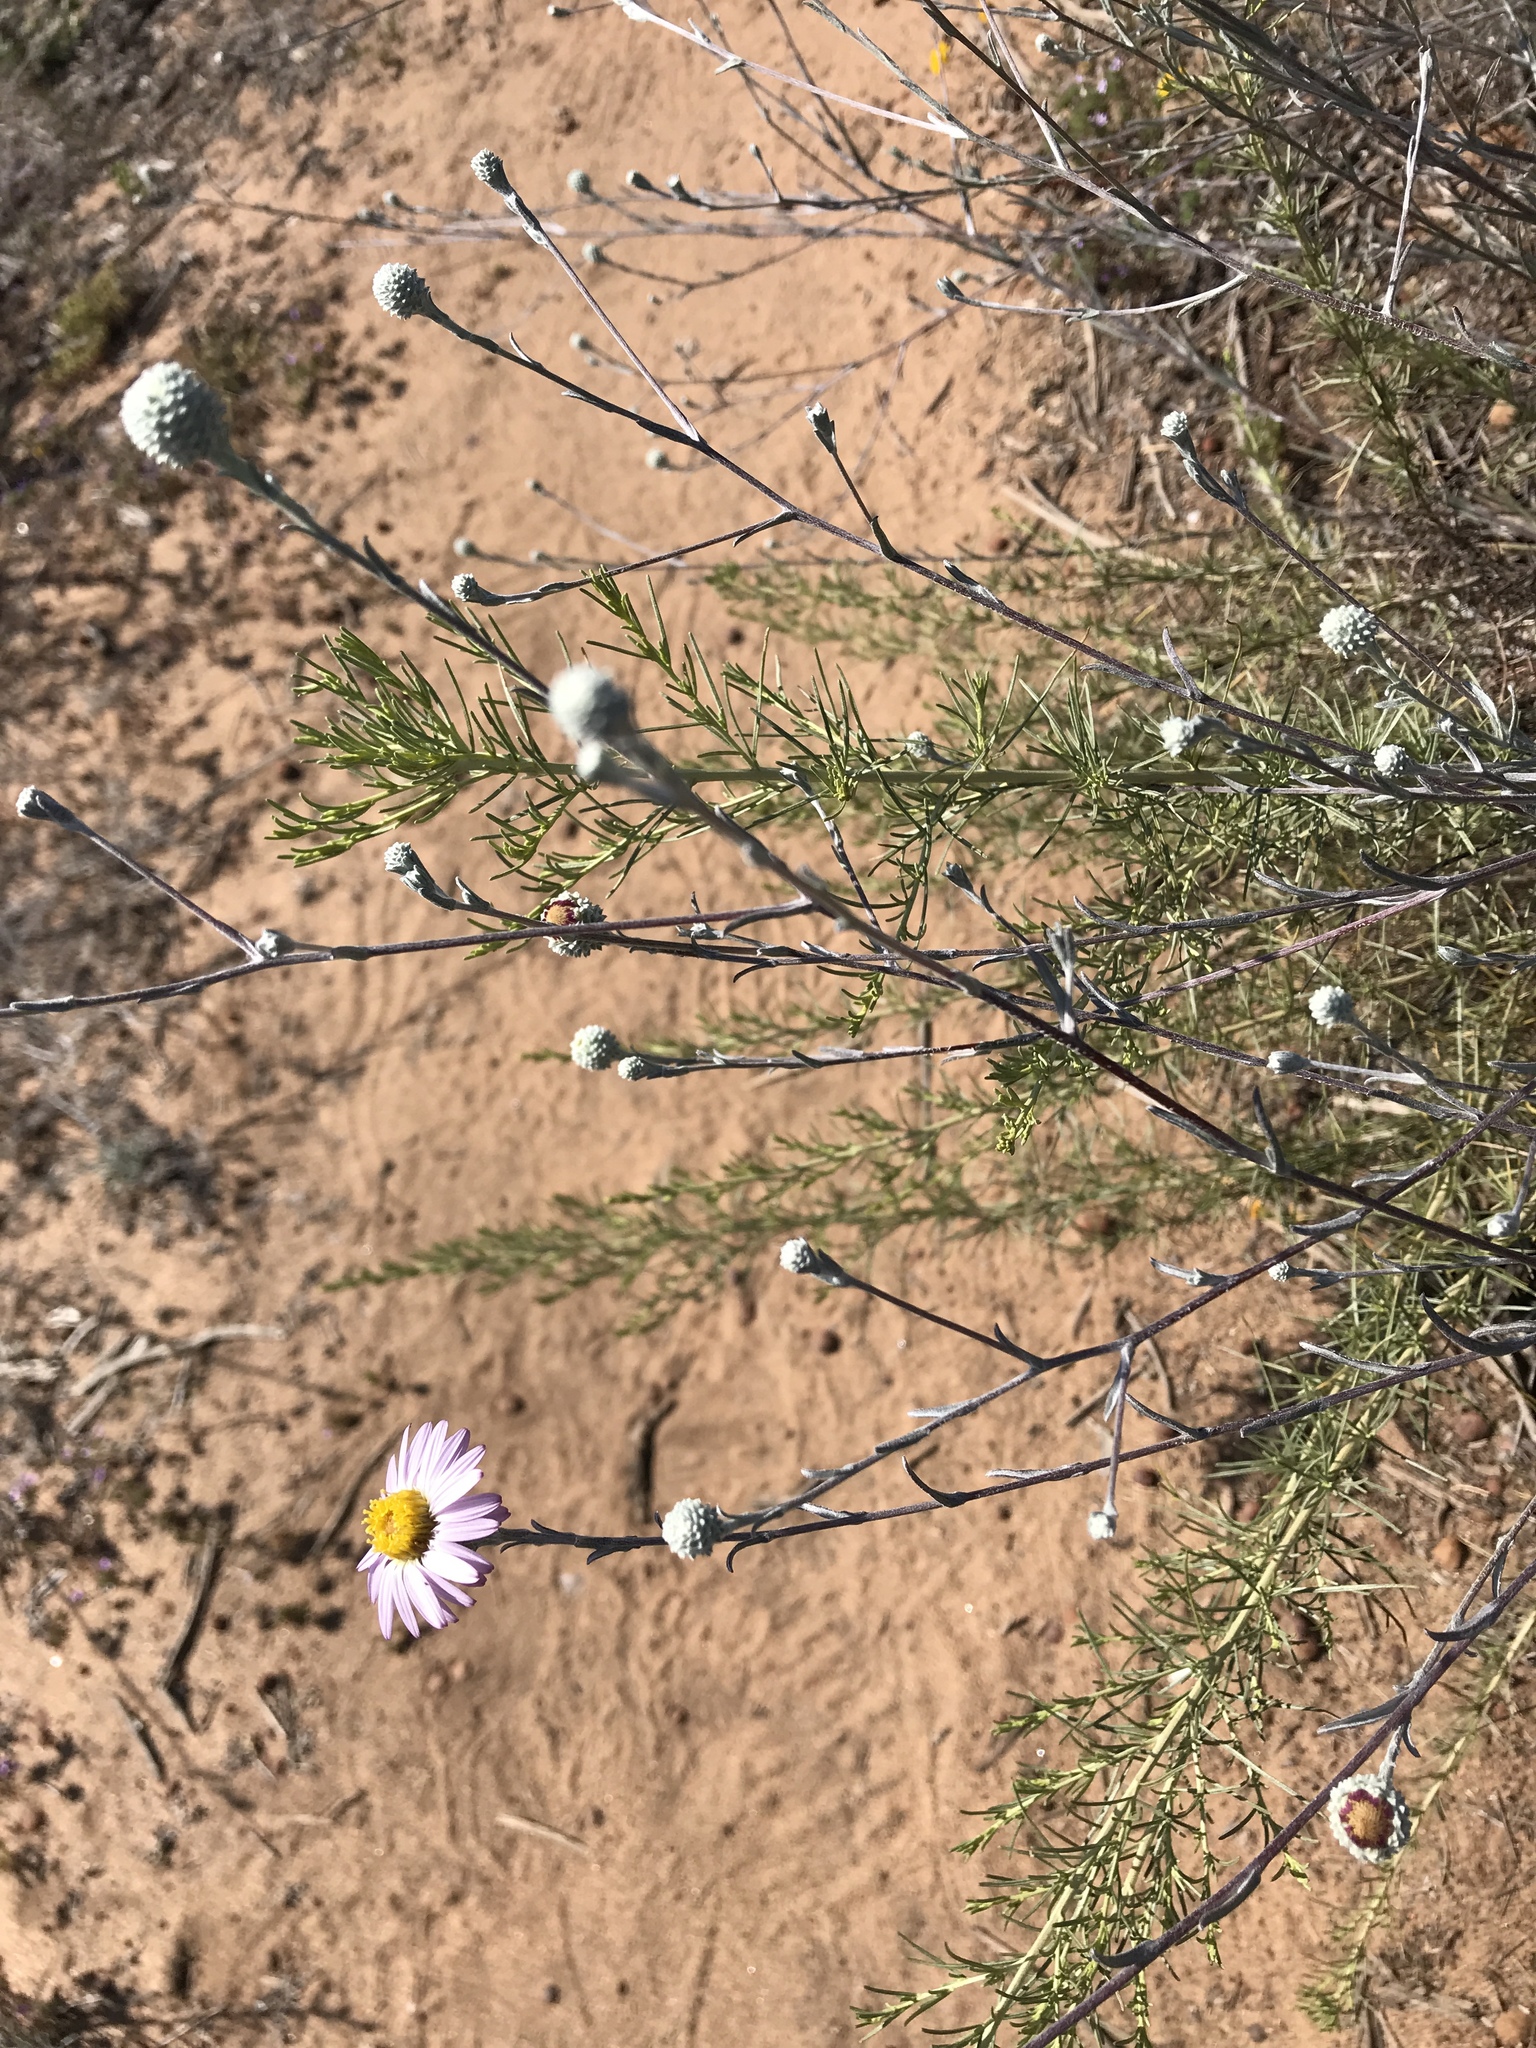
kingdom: Plantae
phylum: Tracheophyta
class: Magnoliopsida
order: Asterales
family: Asteraceae
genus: Corethrogyne
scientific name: Corethrogyne filaginifolia
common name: Sand-aster
